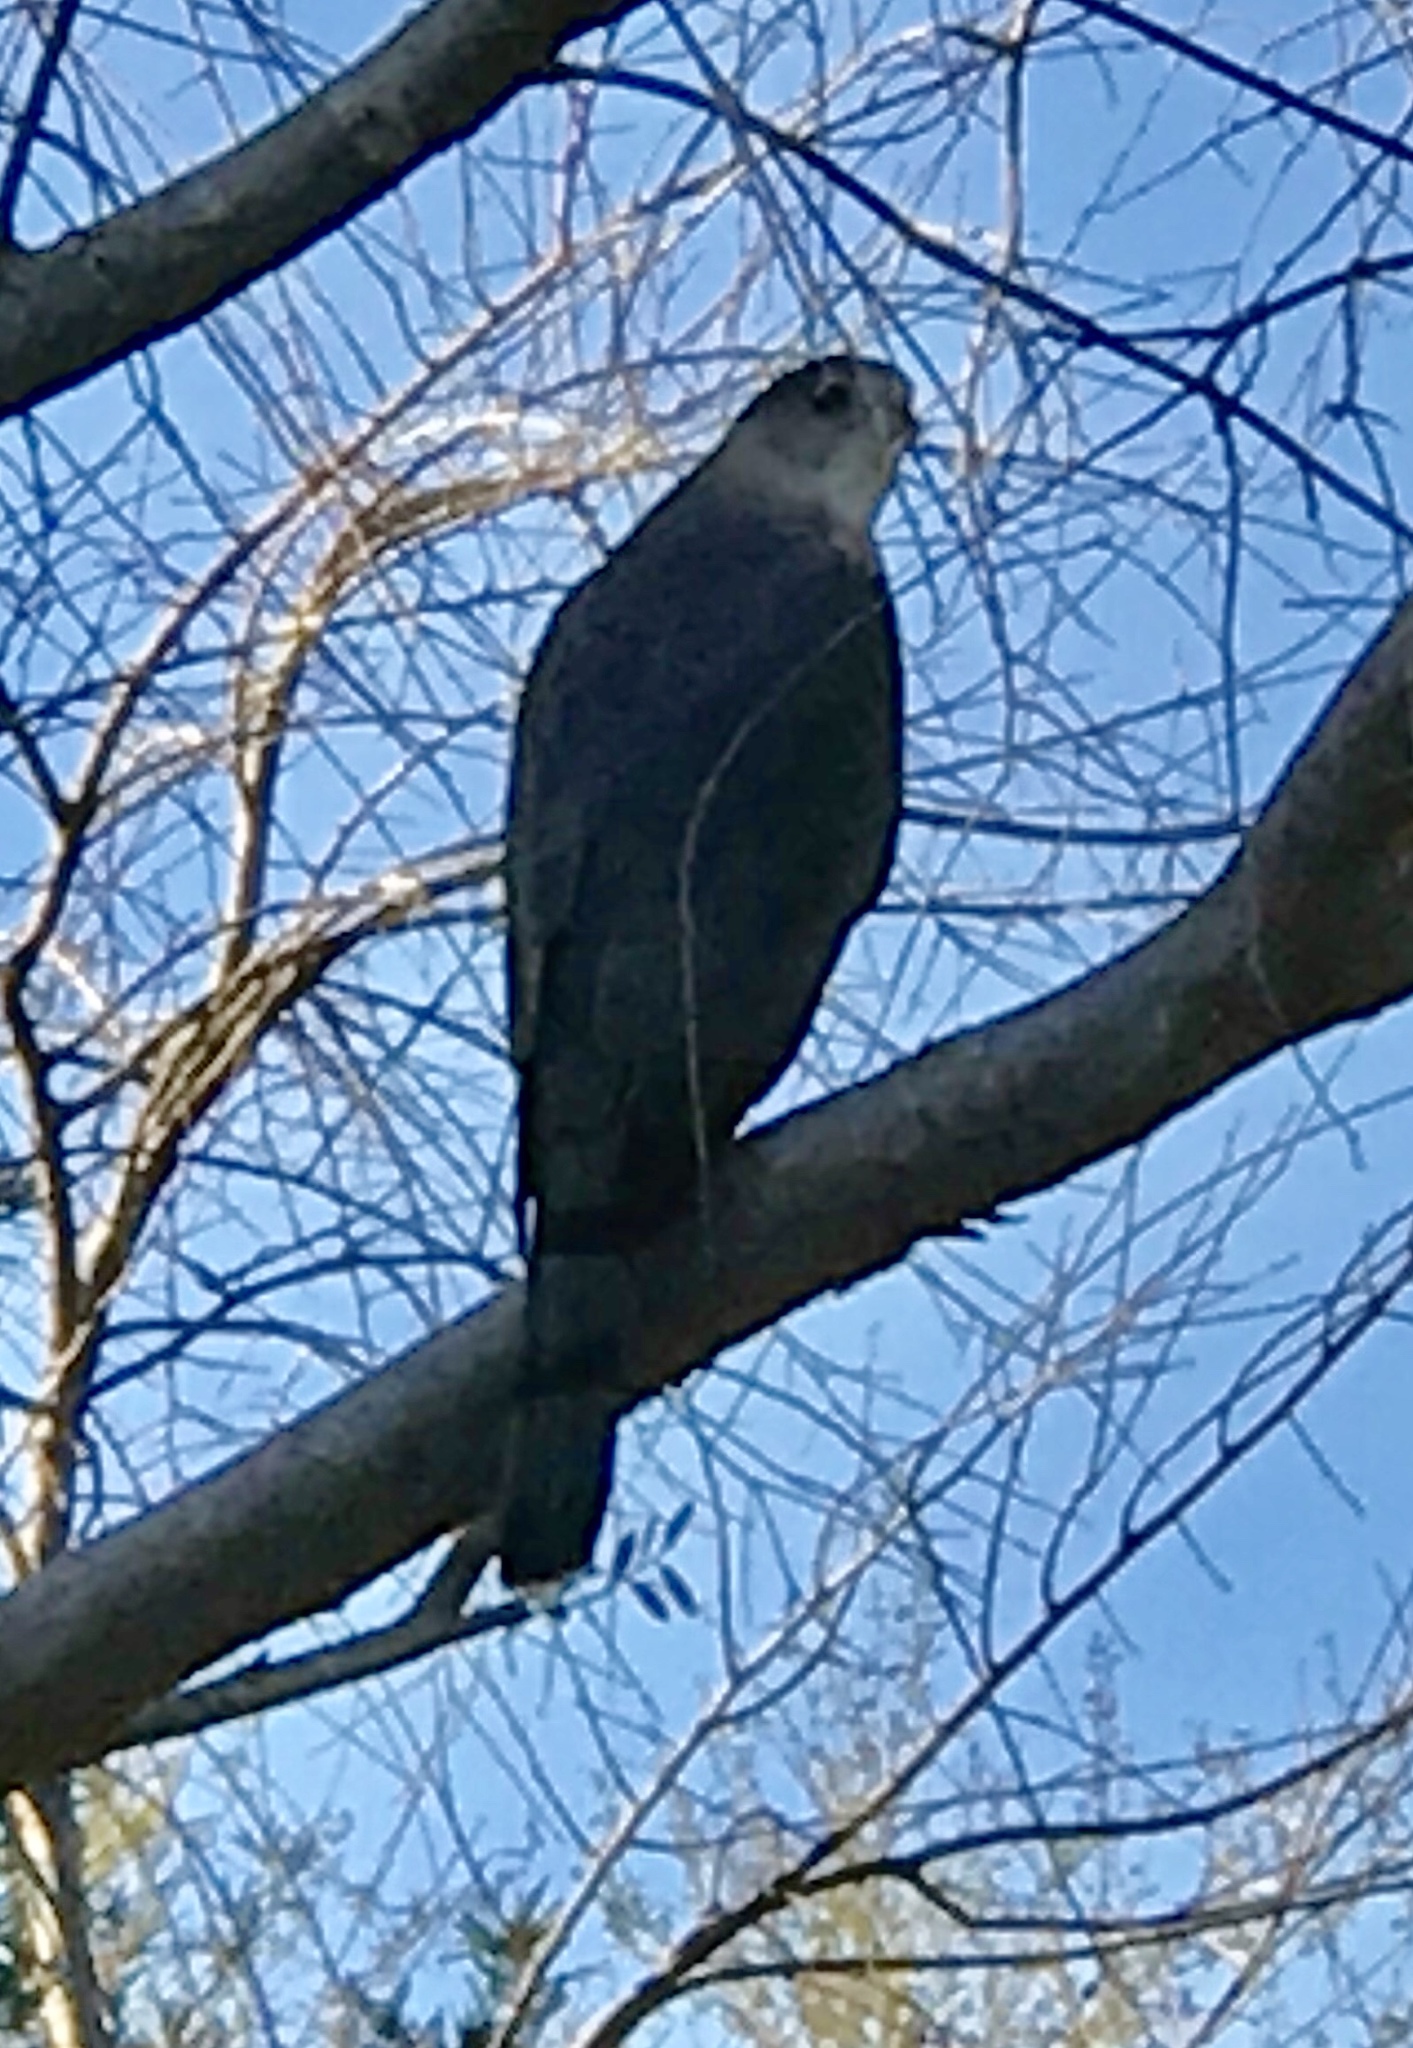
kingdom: Animalia
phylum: Chordata
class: Aves
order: Accipitriformes
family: Accipitridae
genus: Accipiter
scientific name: Accipiter cooperii
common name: Cooper's hawk
